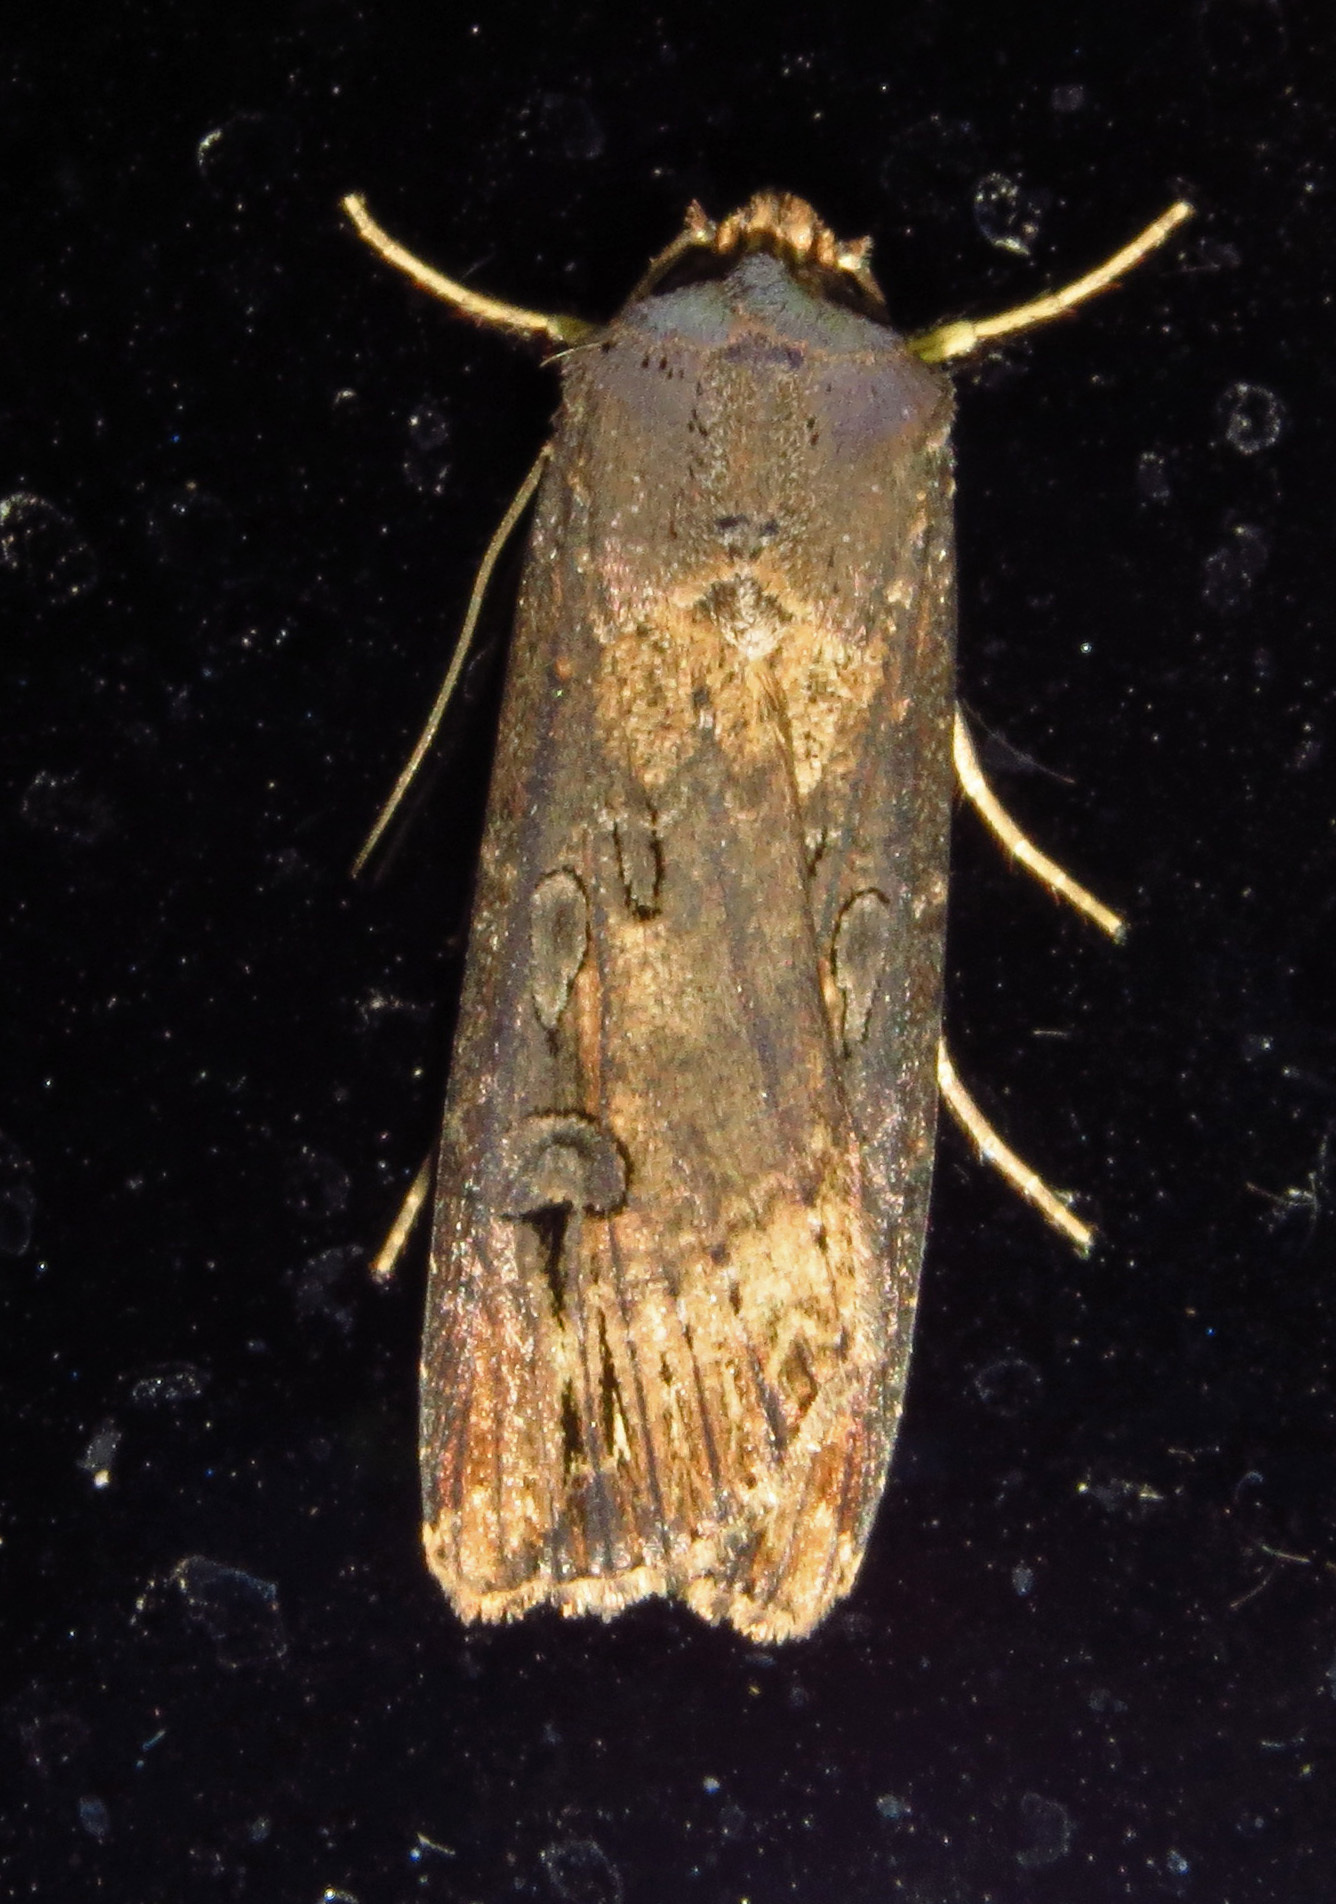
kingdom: Animalia
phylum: Arthropoda
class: Insecta
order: Lepidoptera
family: Noctuidae
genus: Agrotis
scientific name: Agrotis ipsilon
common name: Dark sword-grass
